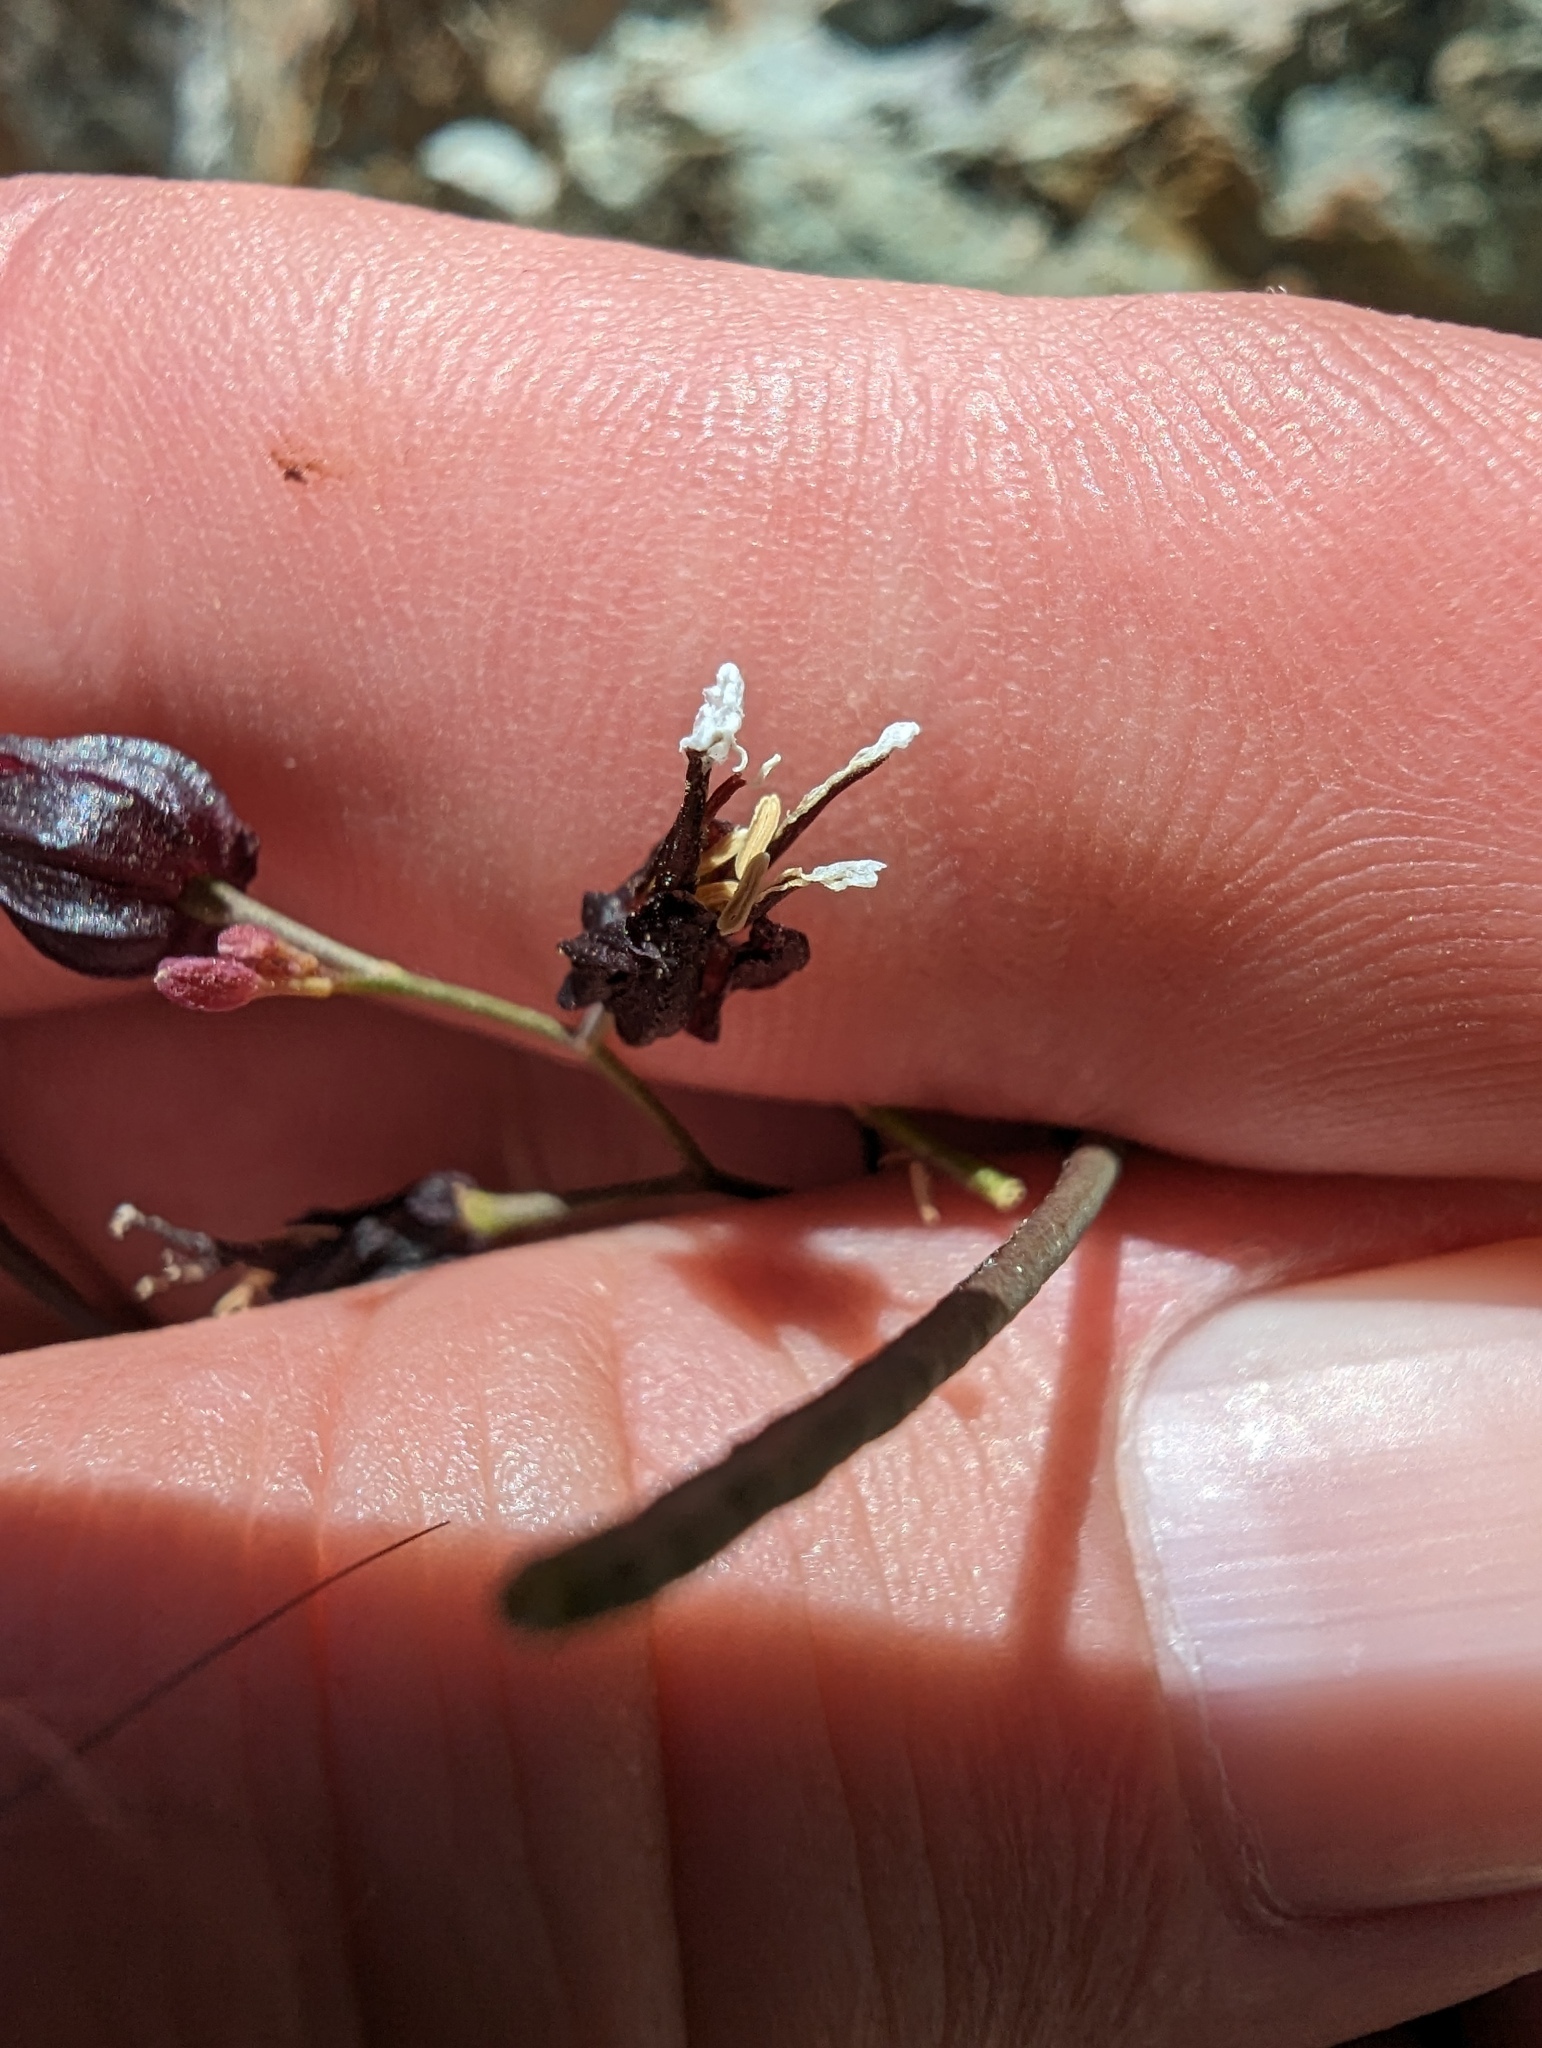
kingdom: Plantae
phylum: Tracheophyta
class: Magnoliopsida
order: Brassicales
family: Brassicaceae
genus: Streptanthus
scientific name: Streptanthus glandulosus
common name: Jewel-flower
